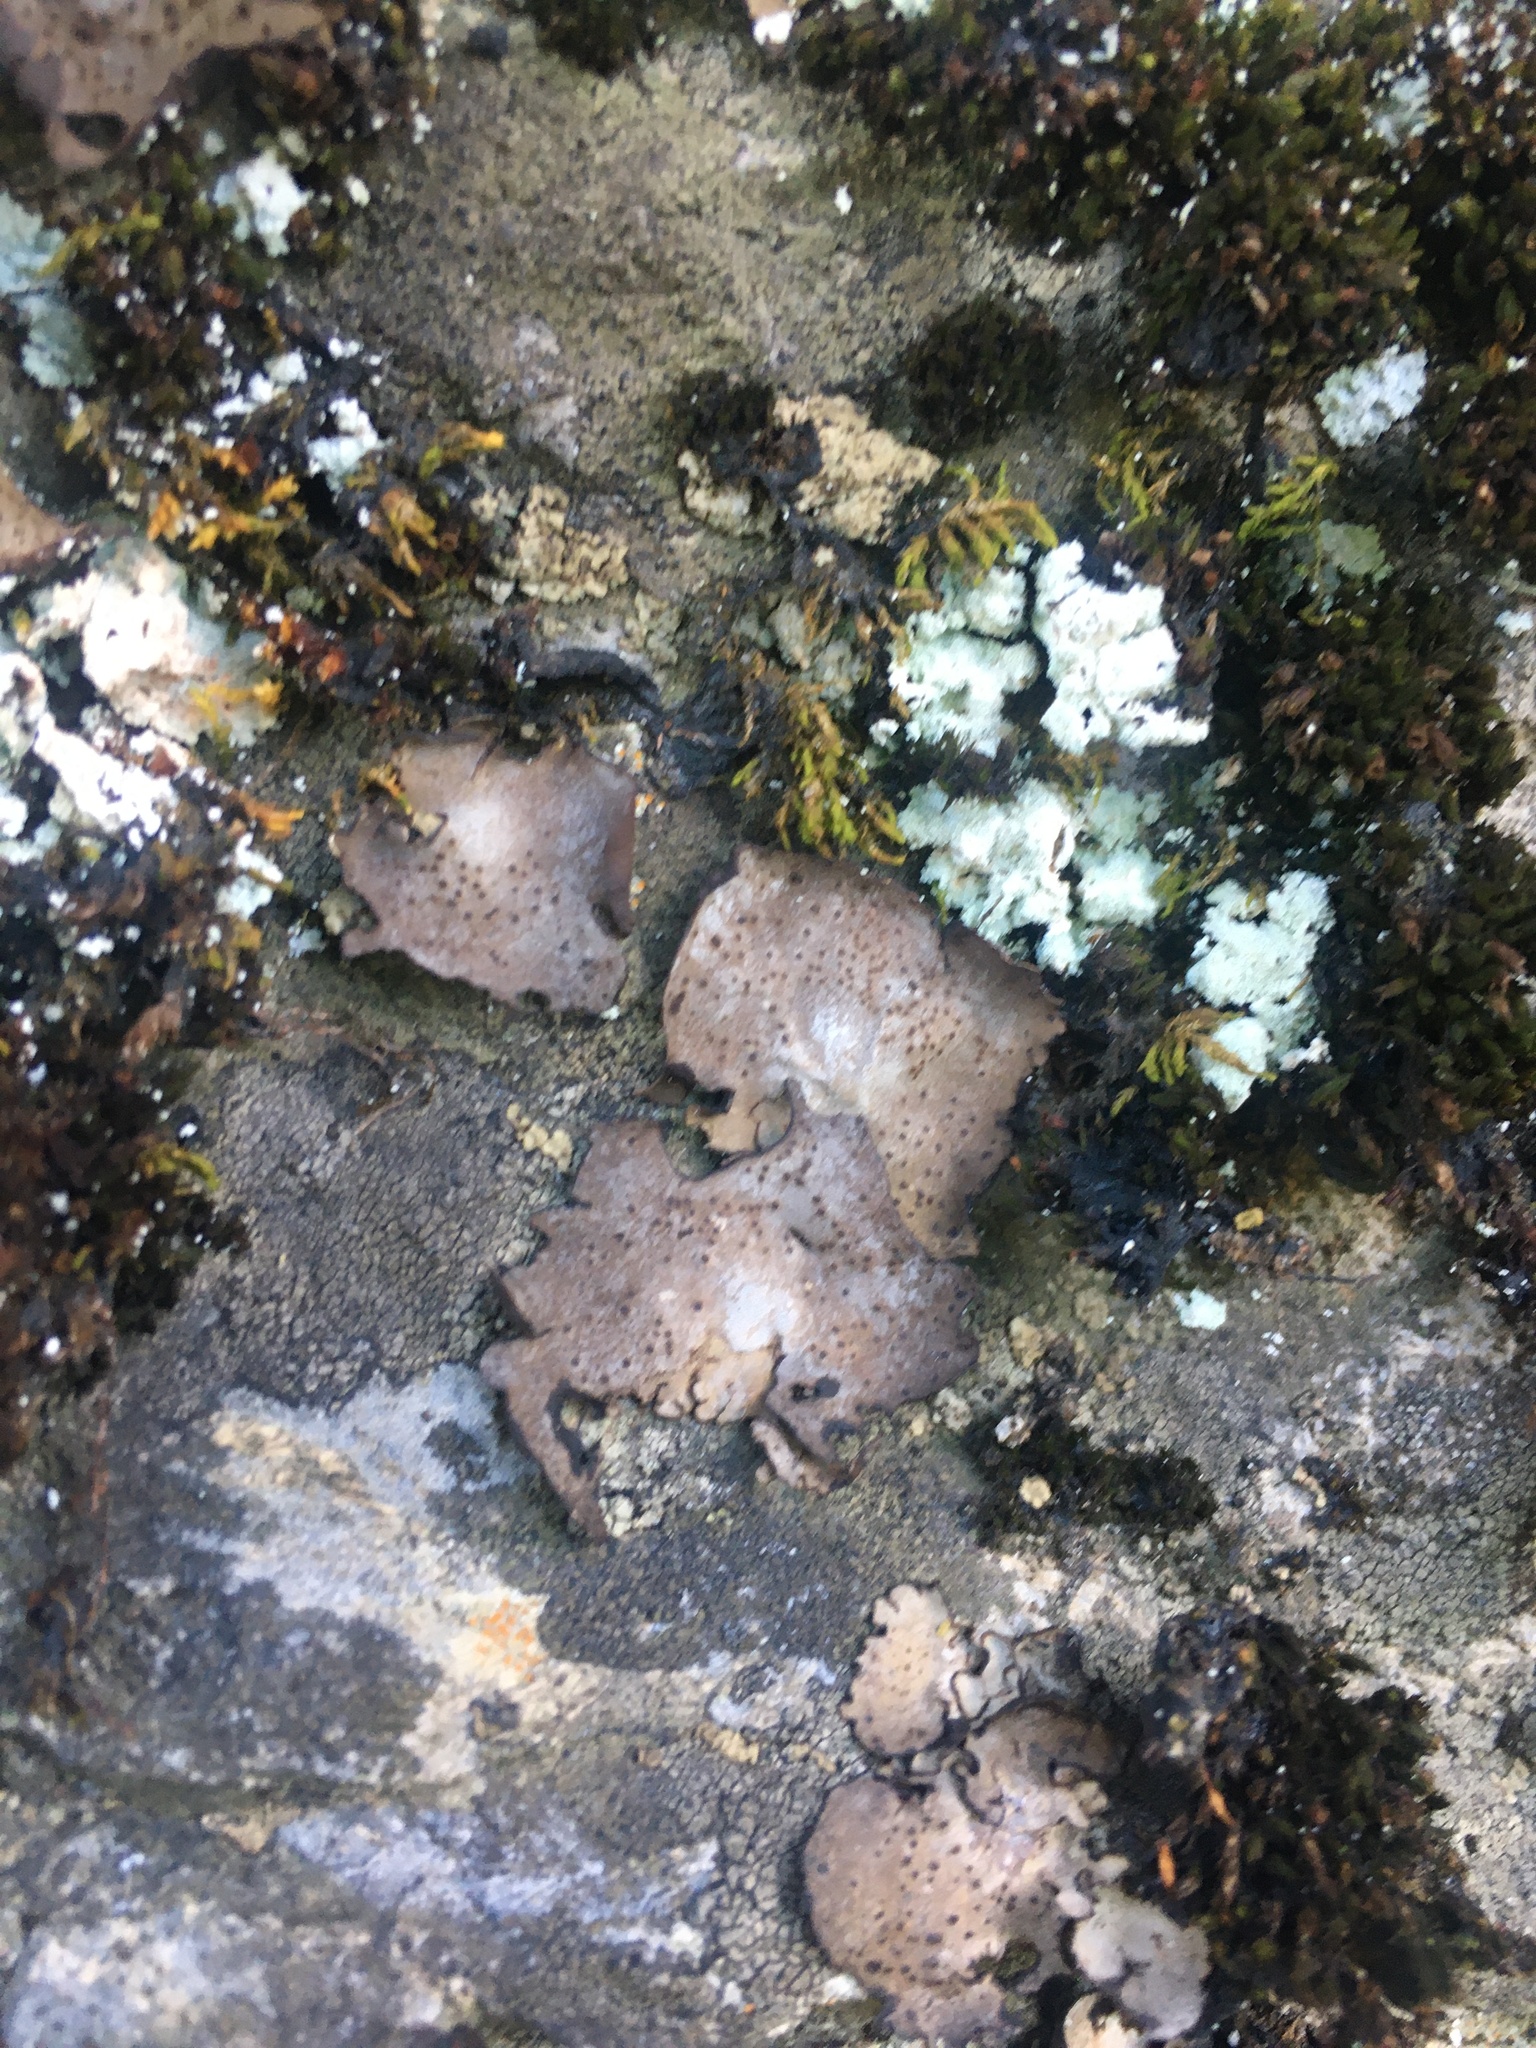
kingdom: Fungi
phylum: Ascomycota
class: Lecanoromycetes
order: Umbilicariales
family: Umbilicariaceae
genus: Lasallia
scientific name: Lasallia papulosa
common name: Common toadskin lichen
